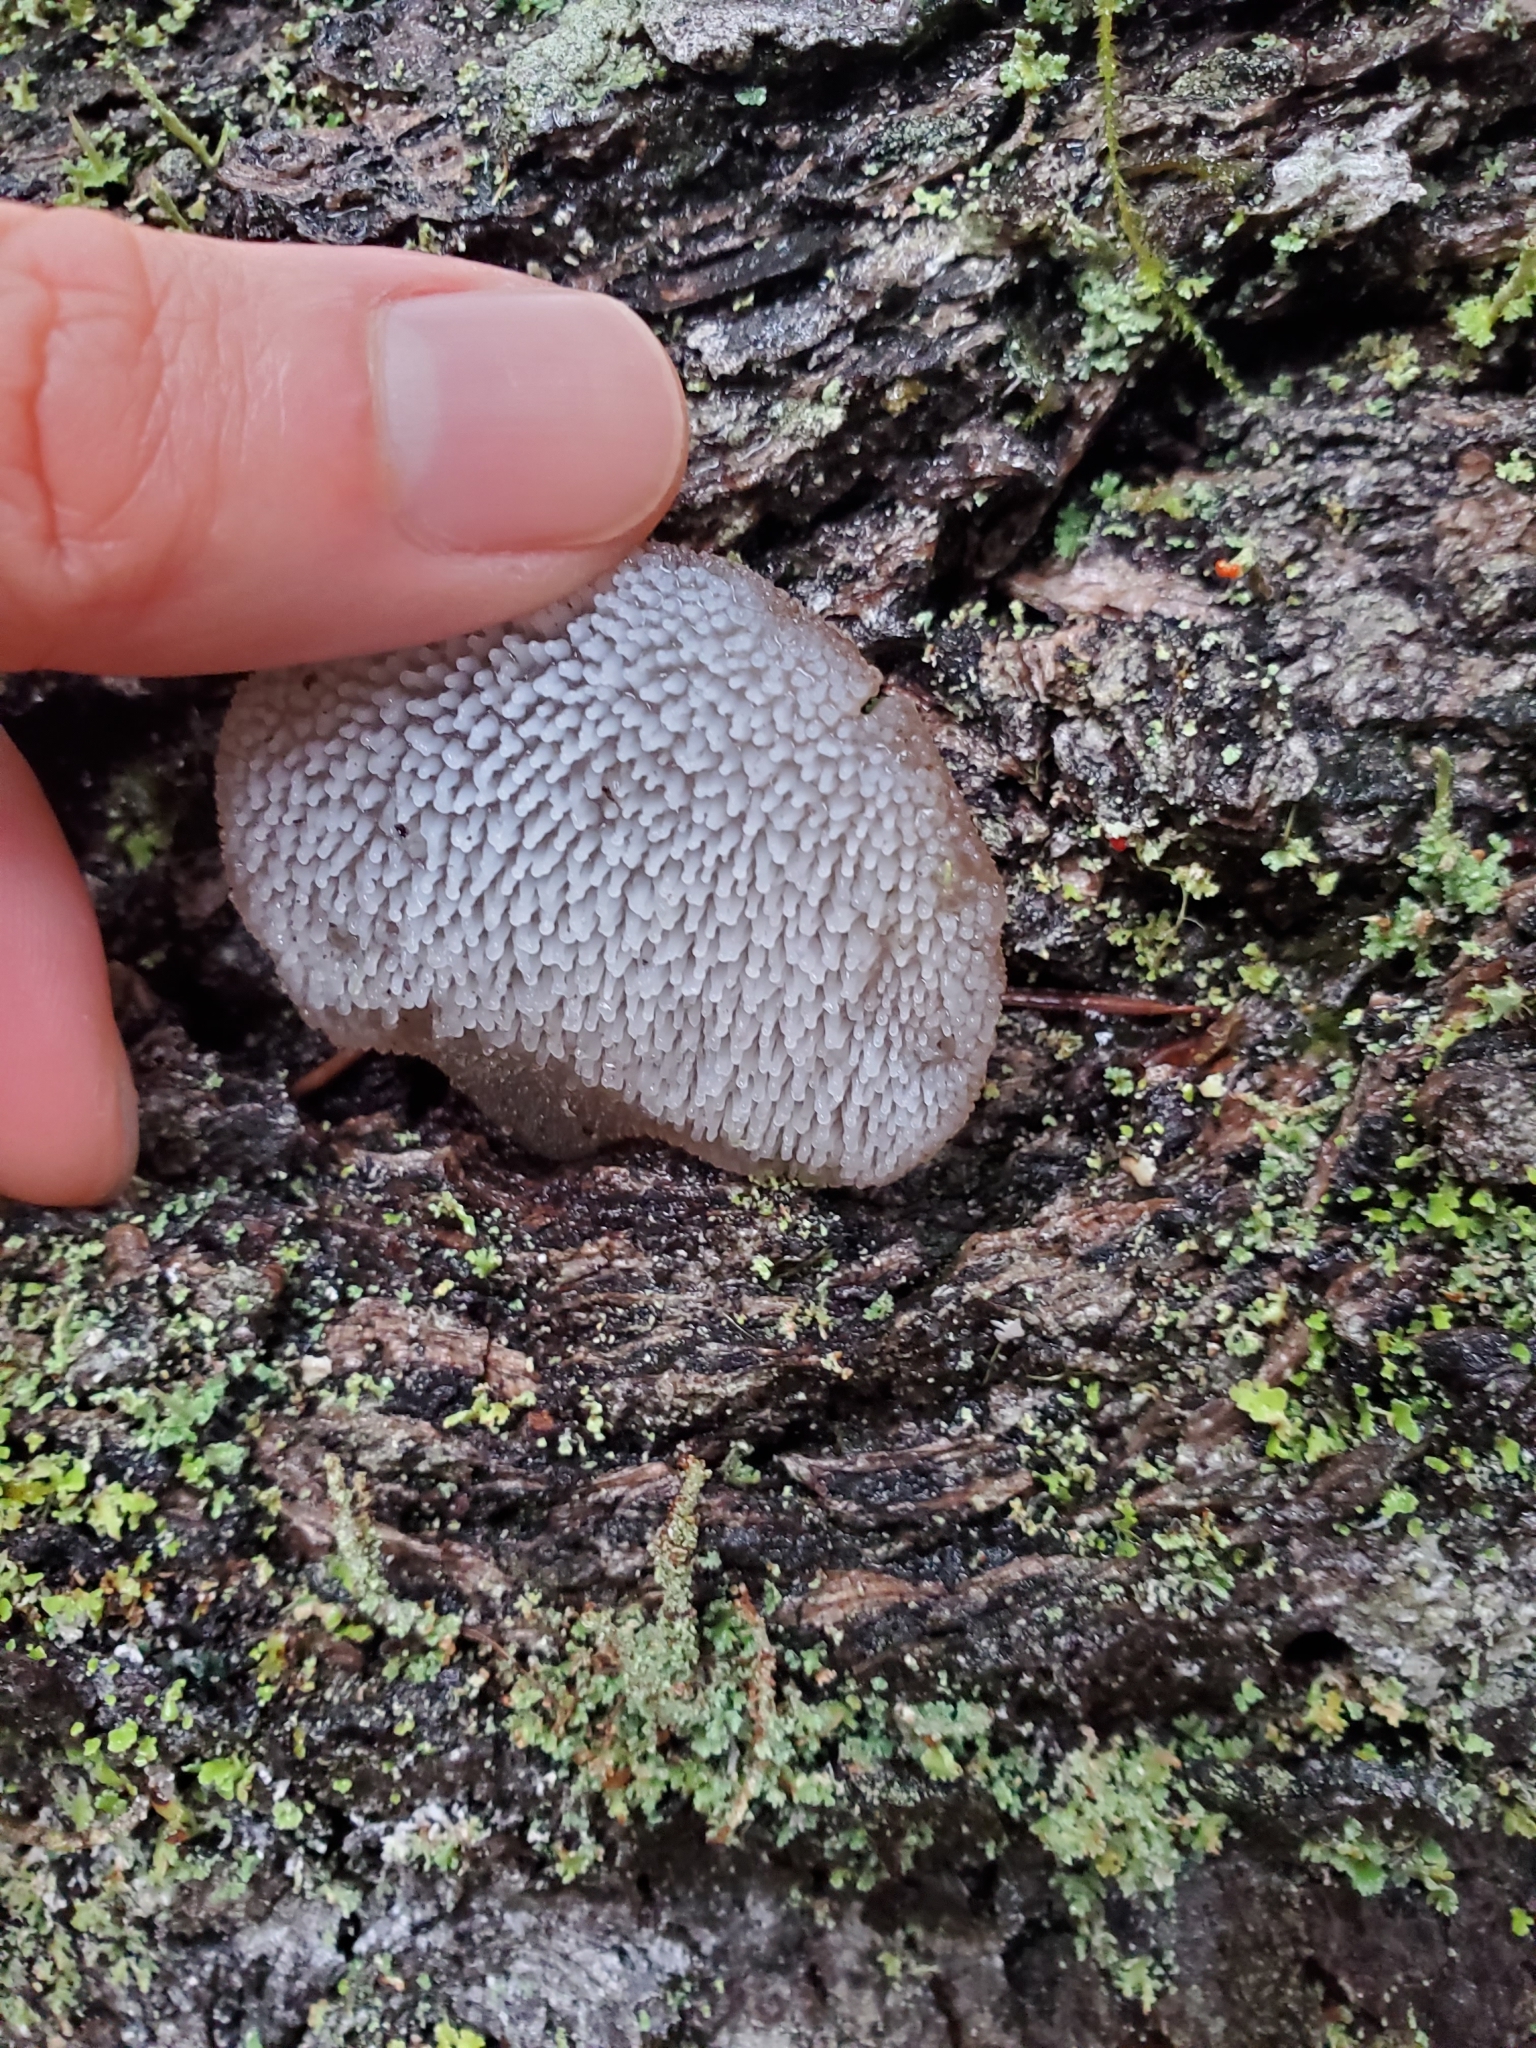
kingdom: Fungi
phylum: Basidiomycota
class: Agaricomycetes
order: Auriculariales
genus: Pseudohydnum
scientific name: Pseudohydnum gelatinosum
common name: Jelly tongue
